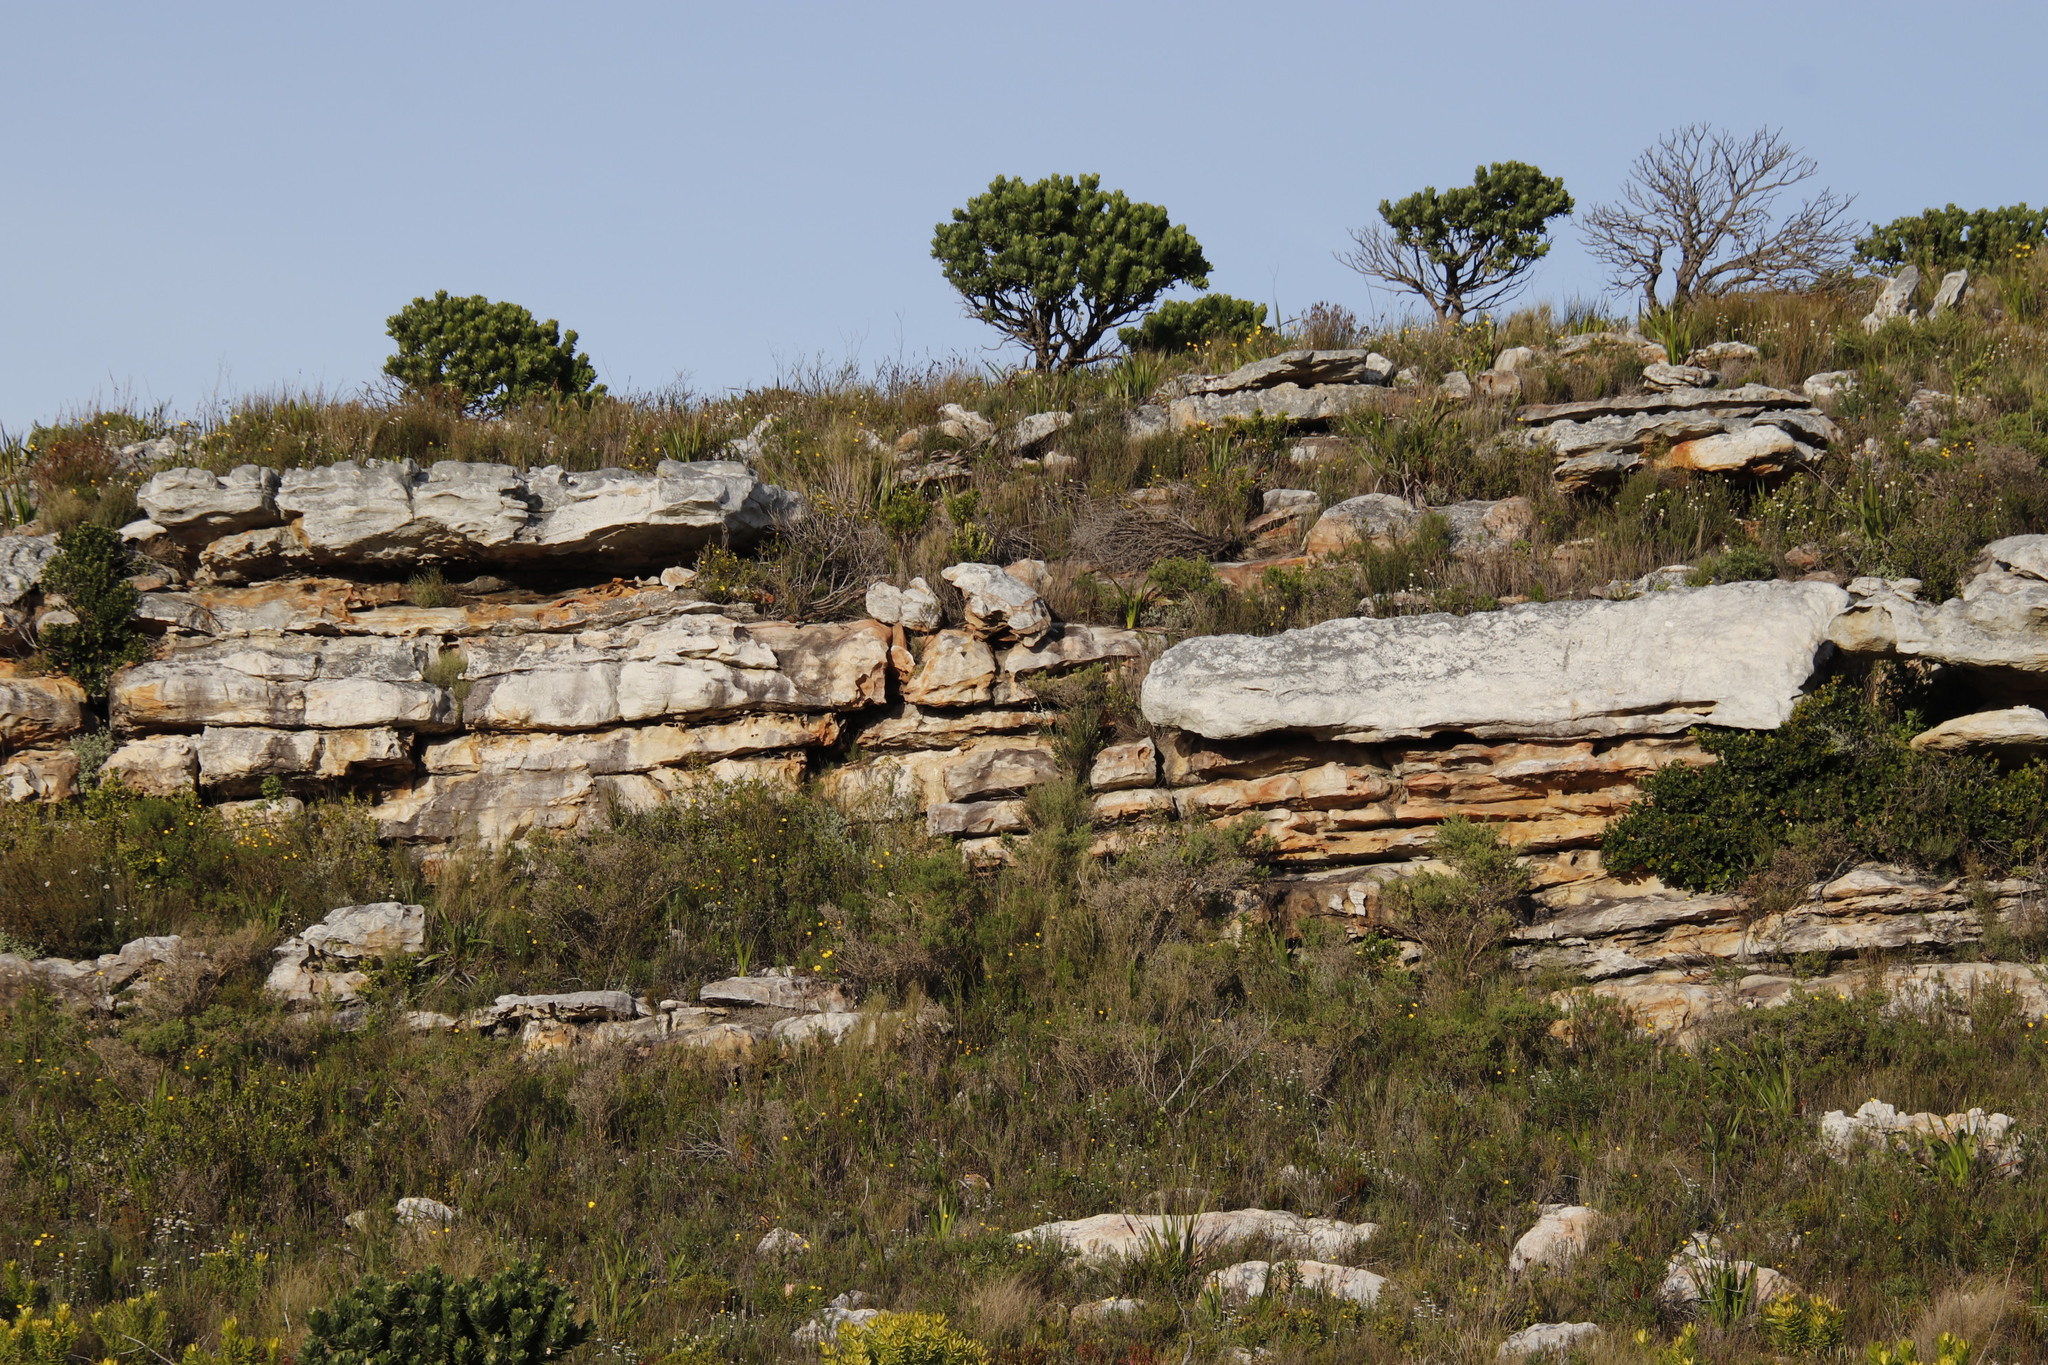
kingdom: Plantae
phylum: Tracheophyta
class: Magnoliopsida
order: Proteales
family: Proteaceae
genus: Leucospermum
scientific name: Leucospermum conocarpodendron
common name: Tree pincushion
